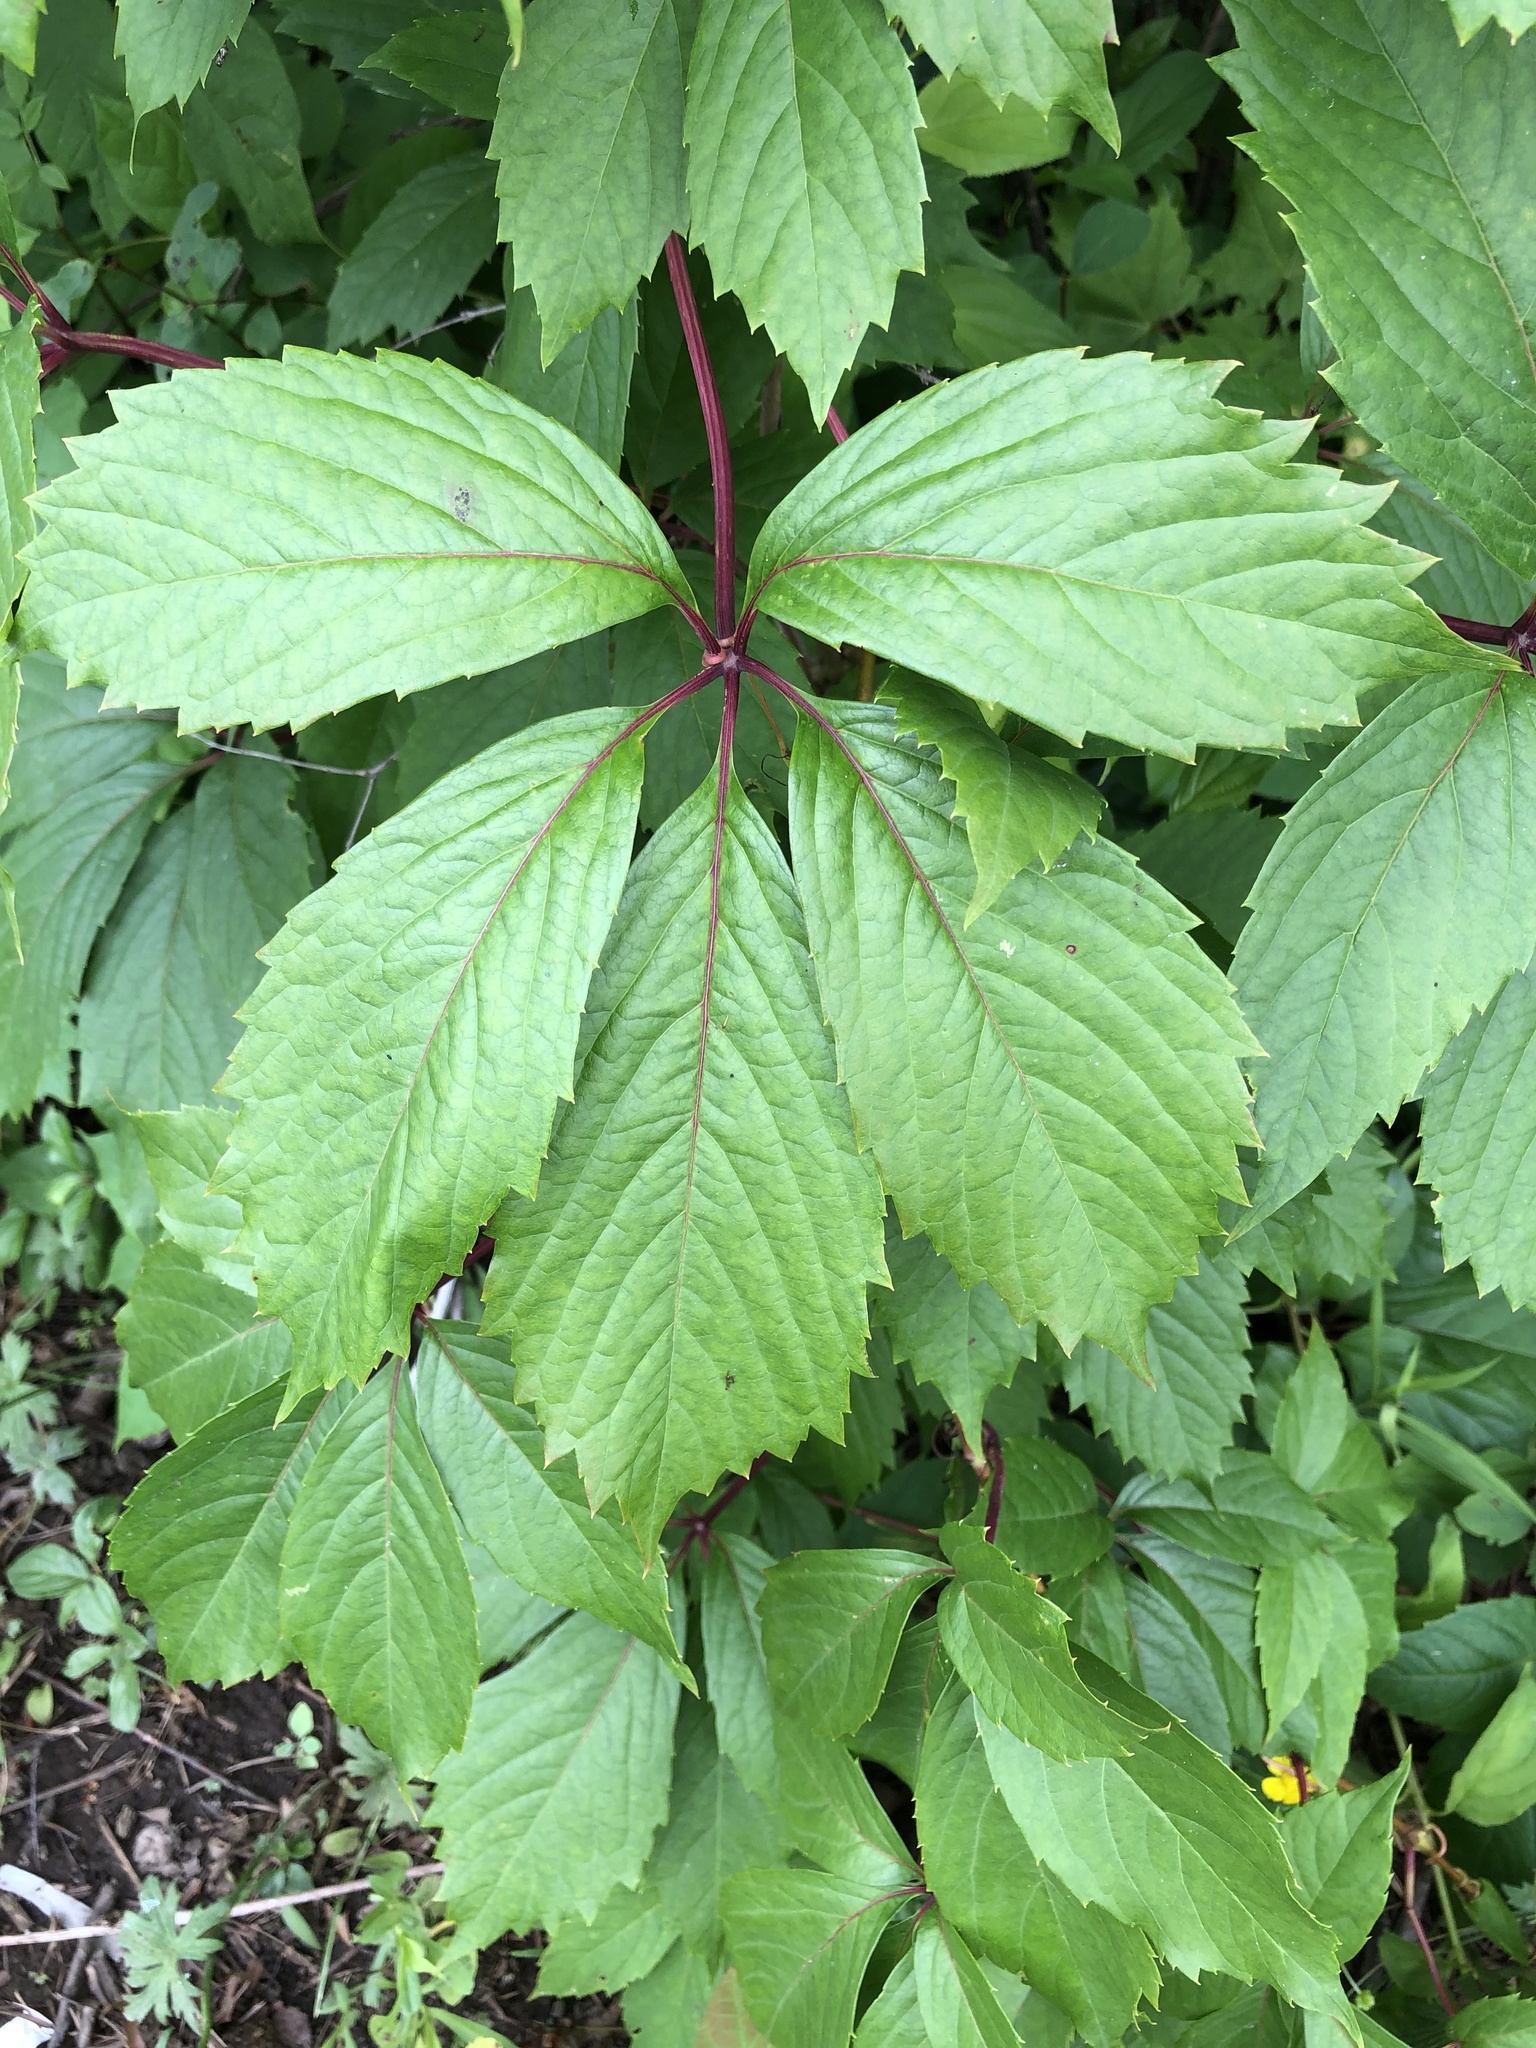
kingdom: Plantae
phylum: Tracheophyta
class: Magnoliopsida
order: Vitales
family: Vitaceae
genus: Parthenocissus
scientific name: Parthenocissus inserta
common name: False virginia-creeper
